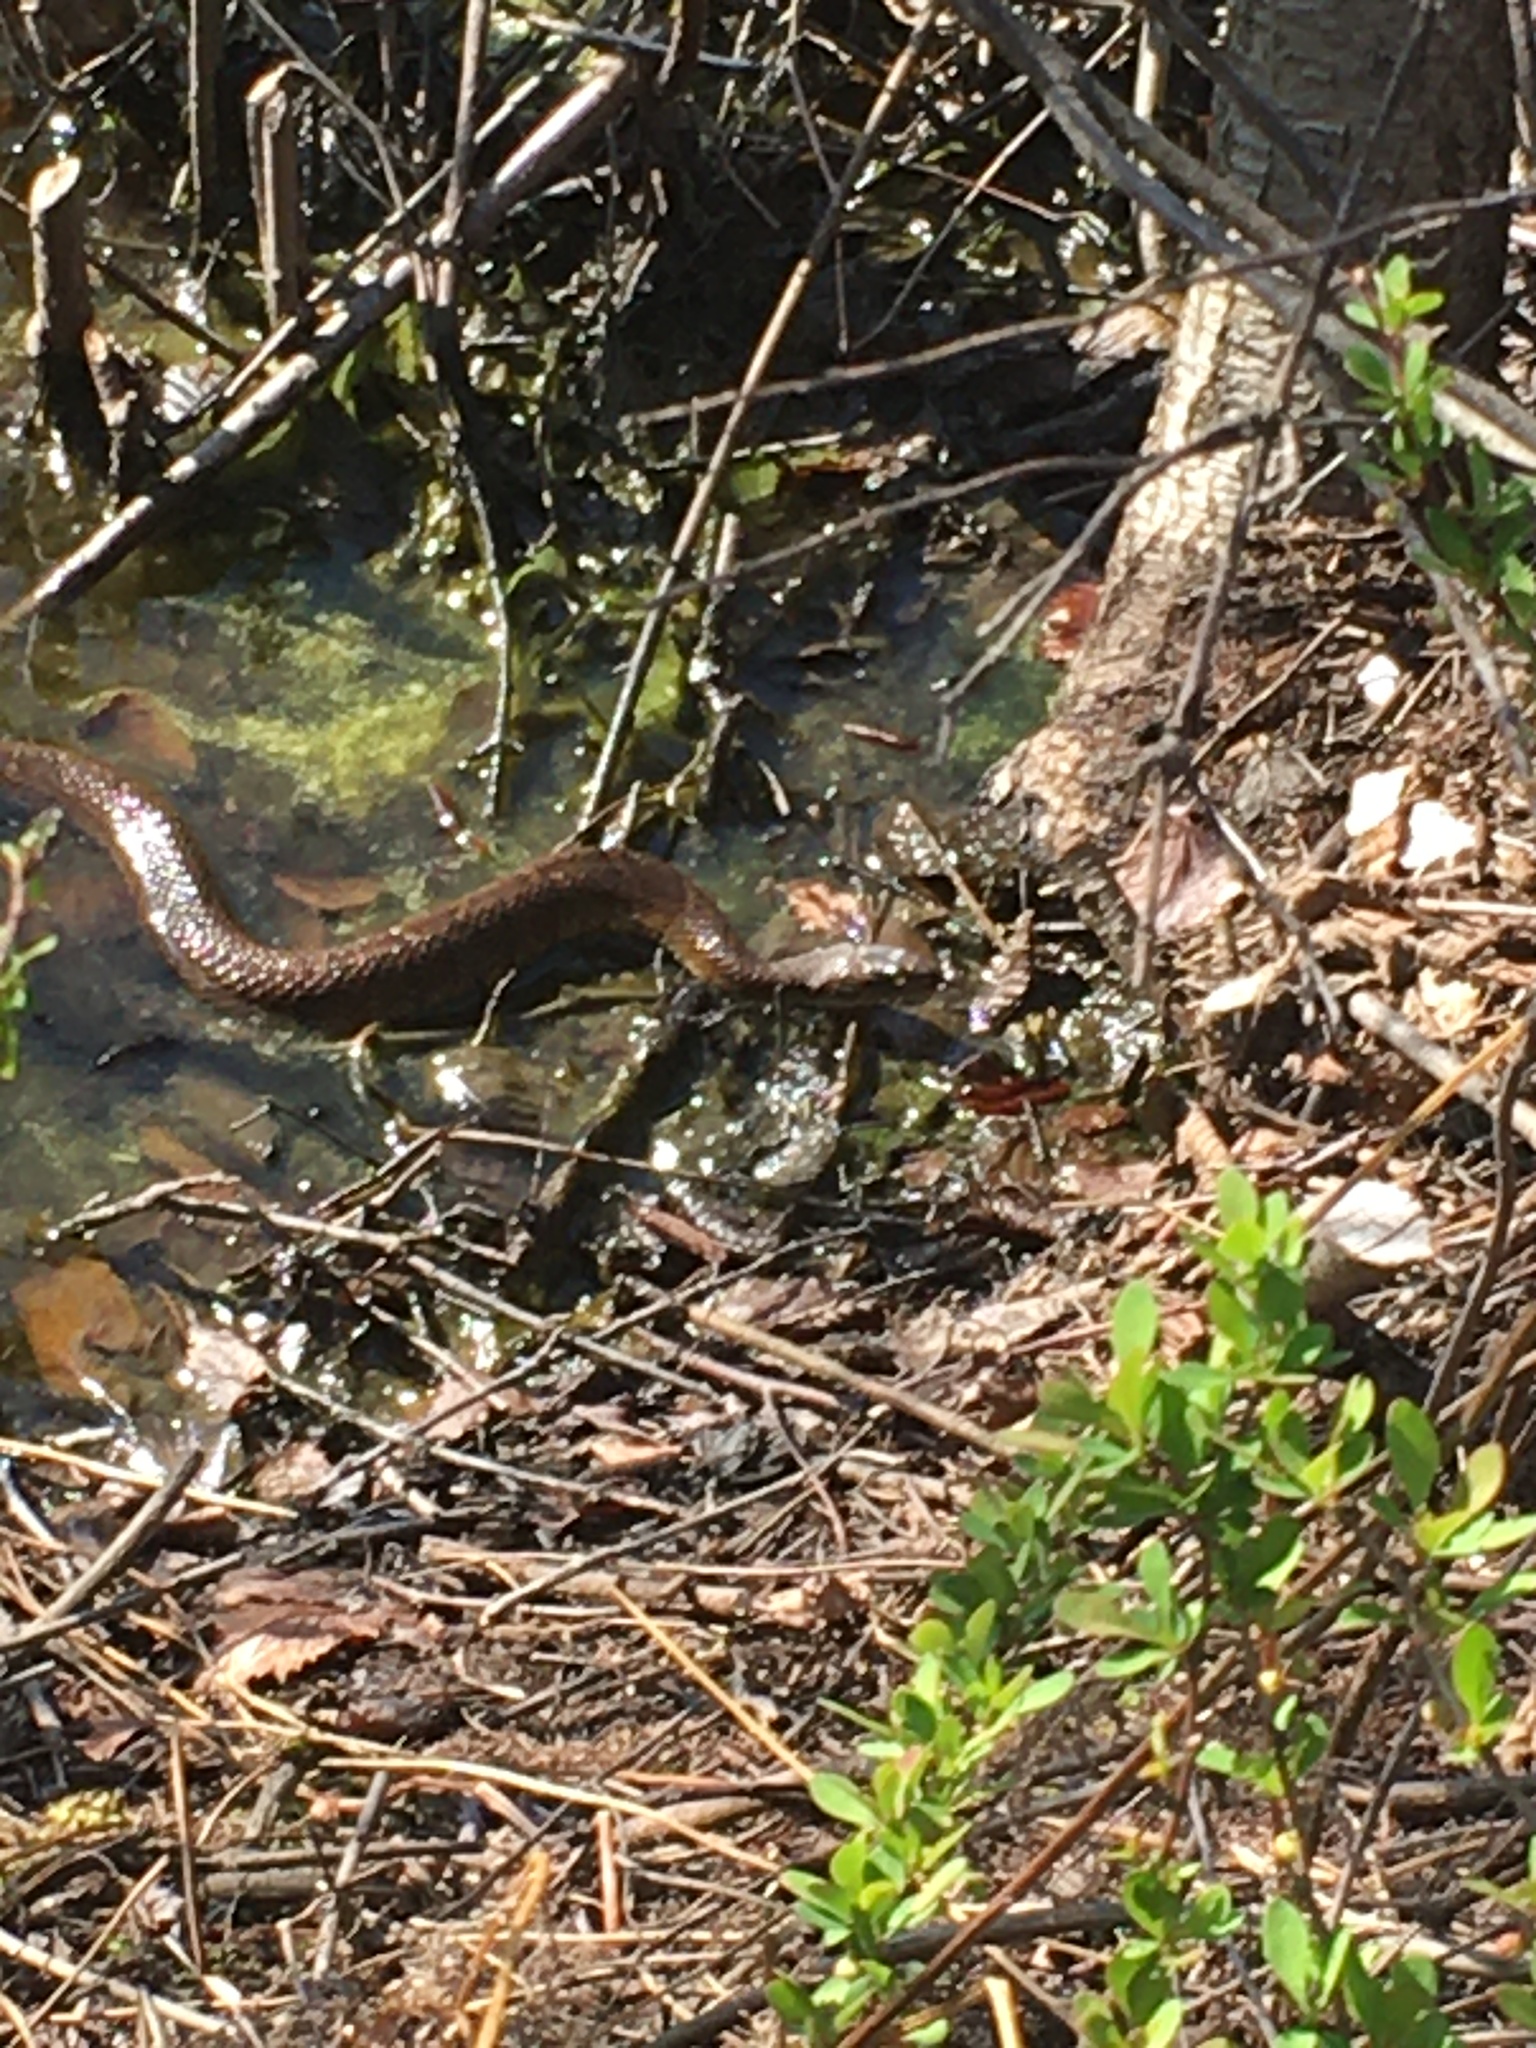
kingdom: Animalia
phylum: Chordata
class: Squamata
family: Colubridae
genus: Nerodia
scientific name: Nerodia sipedon
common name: Northern water snake
